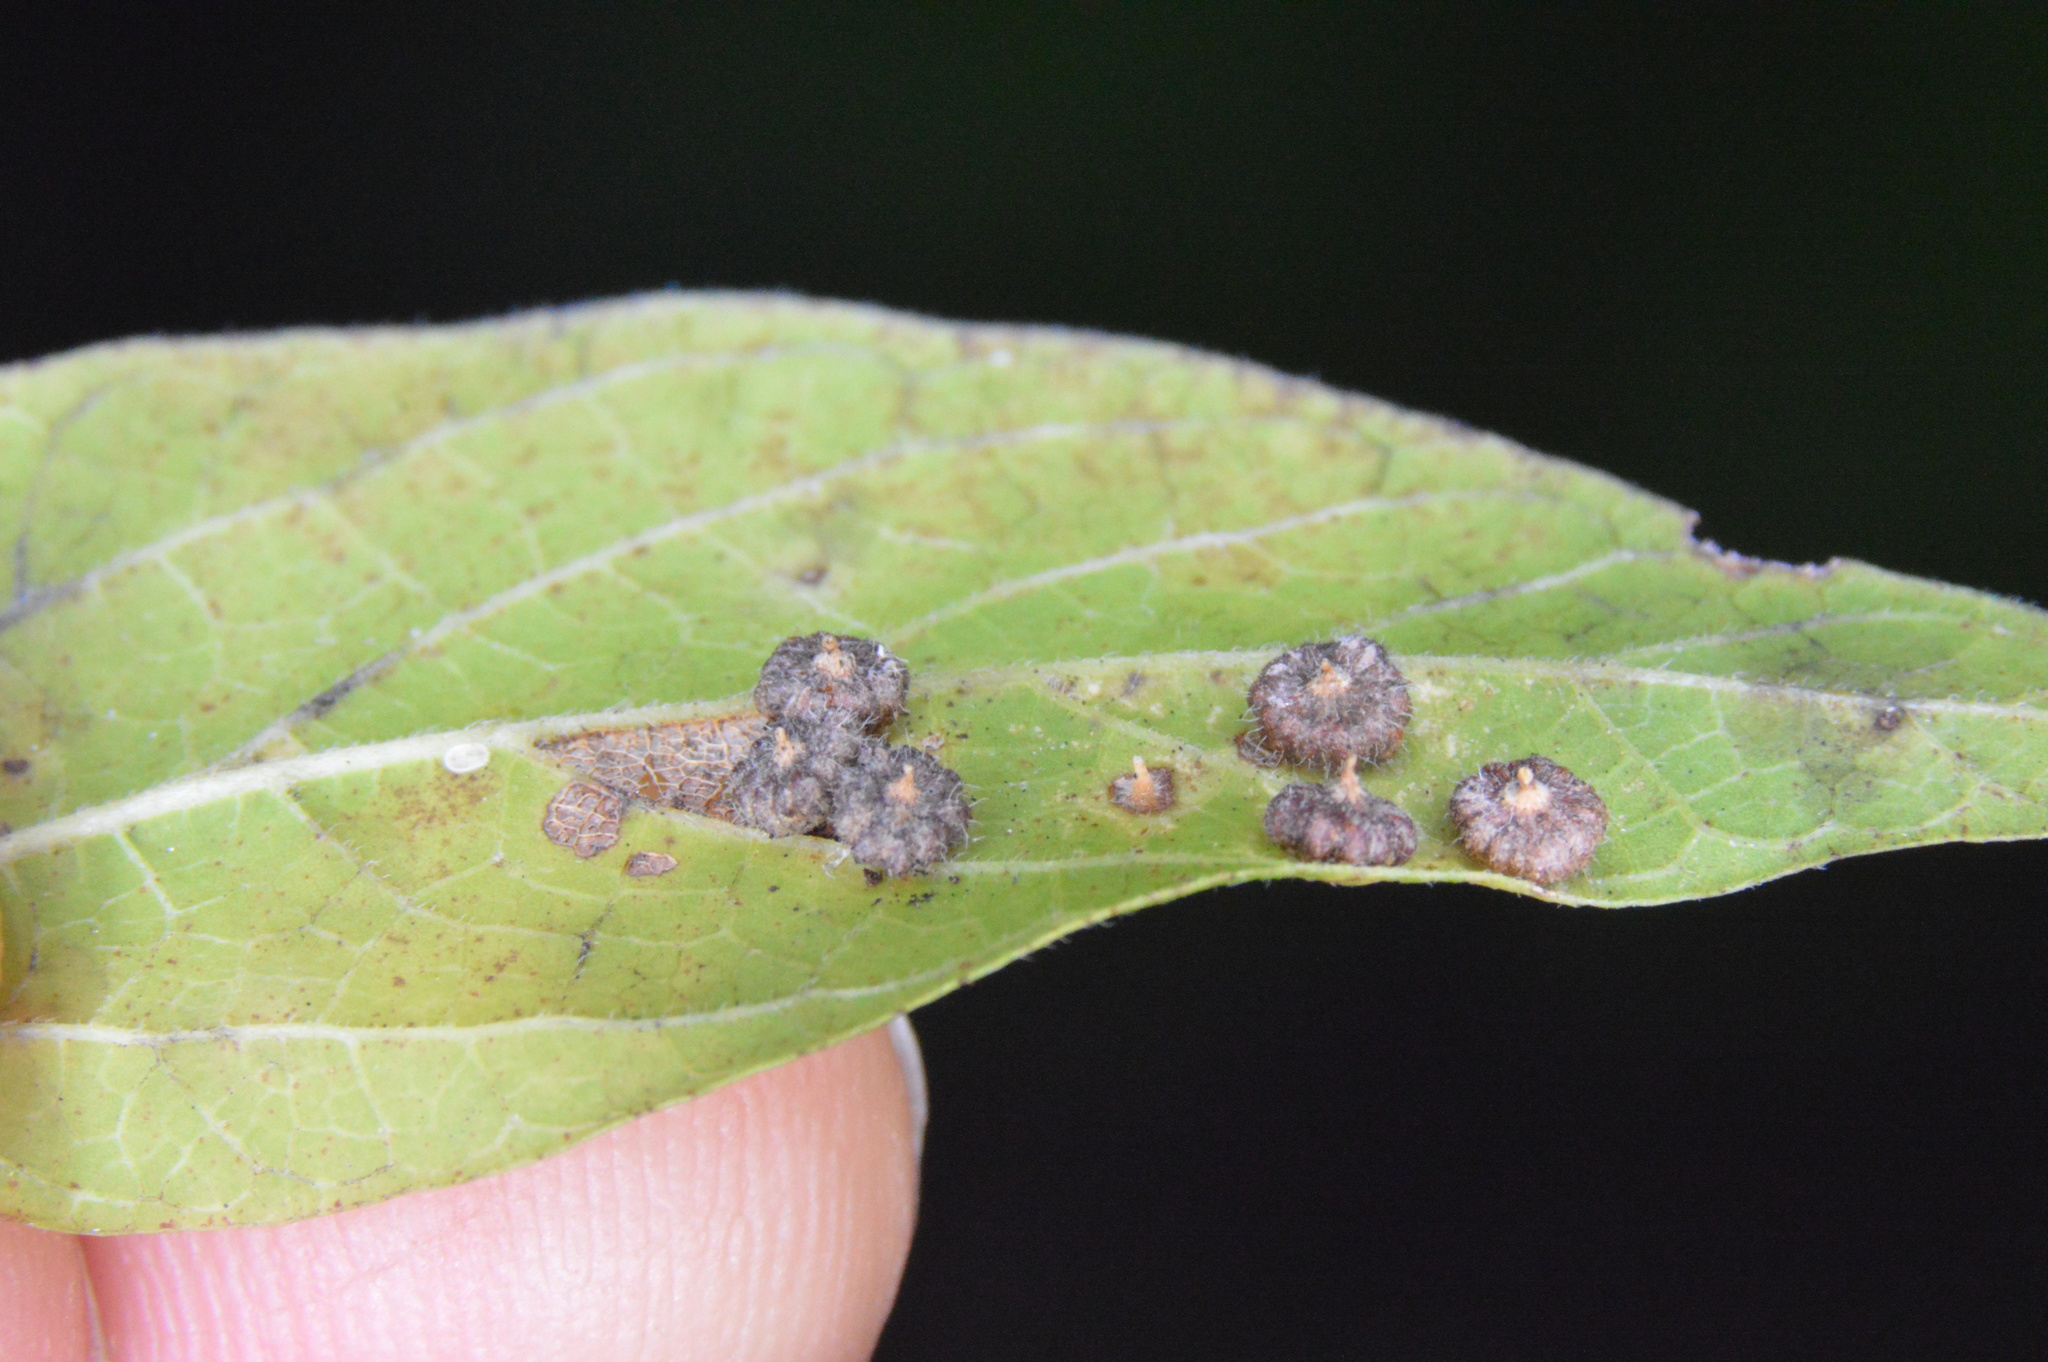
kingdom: Animalia
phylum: Arthropoda
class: Insecta
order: Diptera
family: Cecidomyiidae
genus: Celticecis
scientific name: Celticecis capsularis
